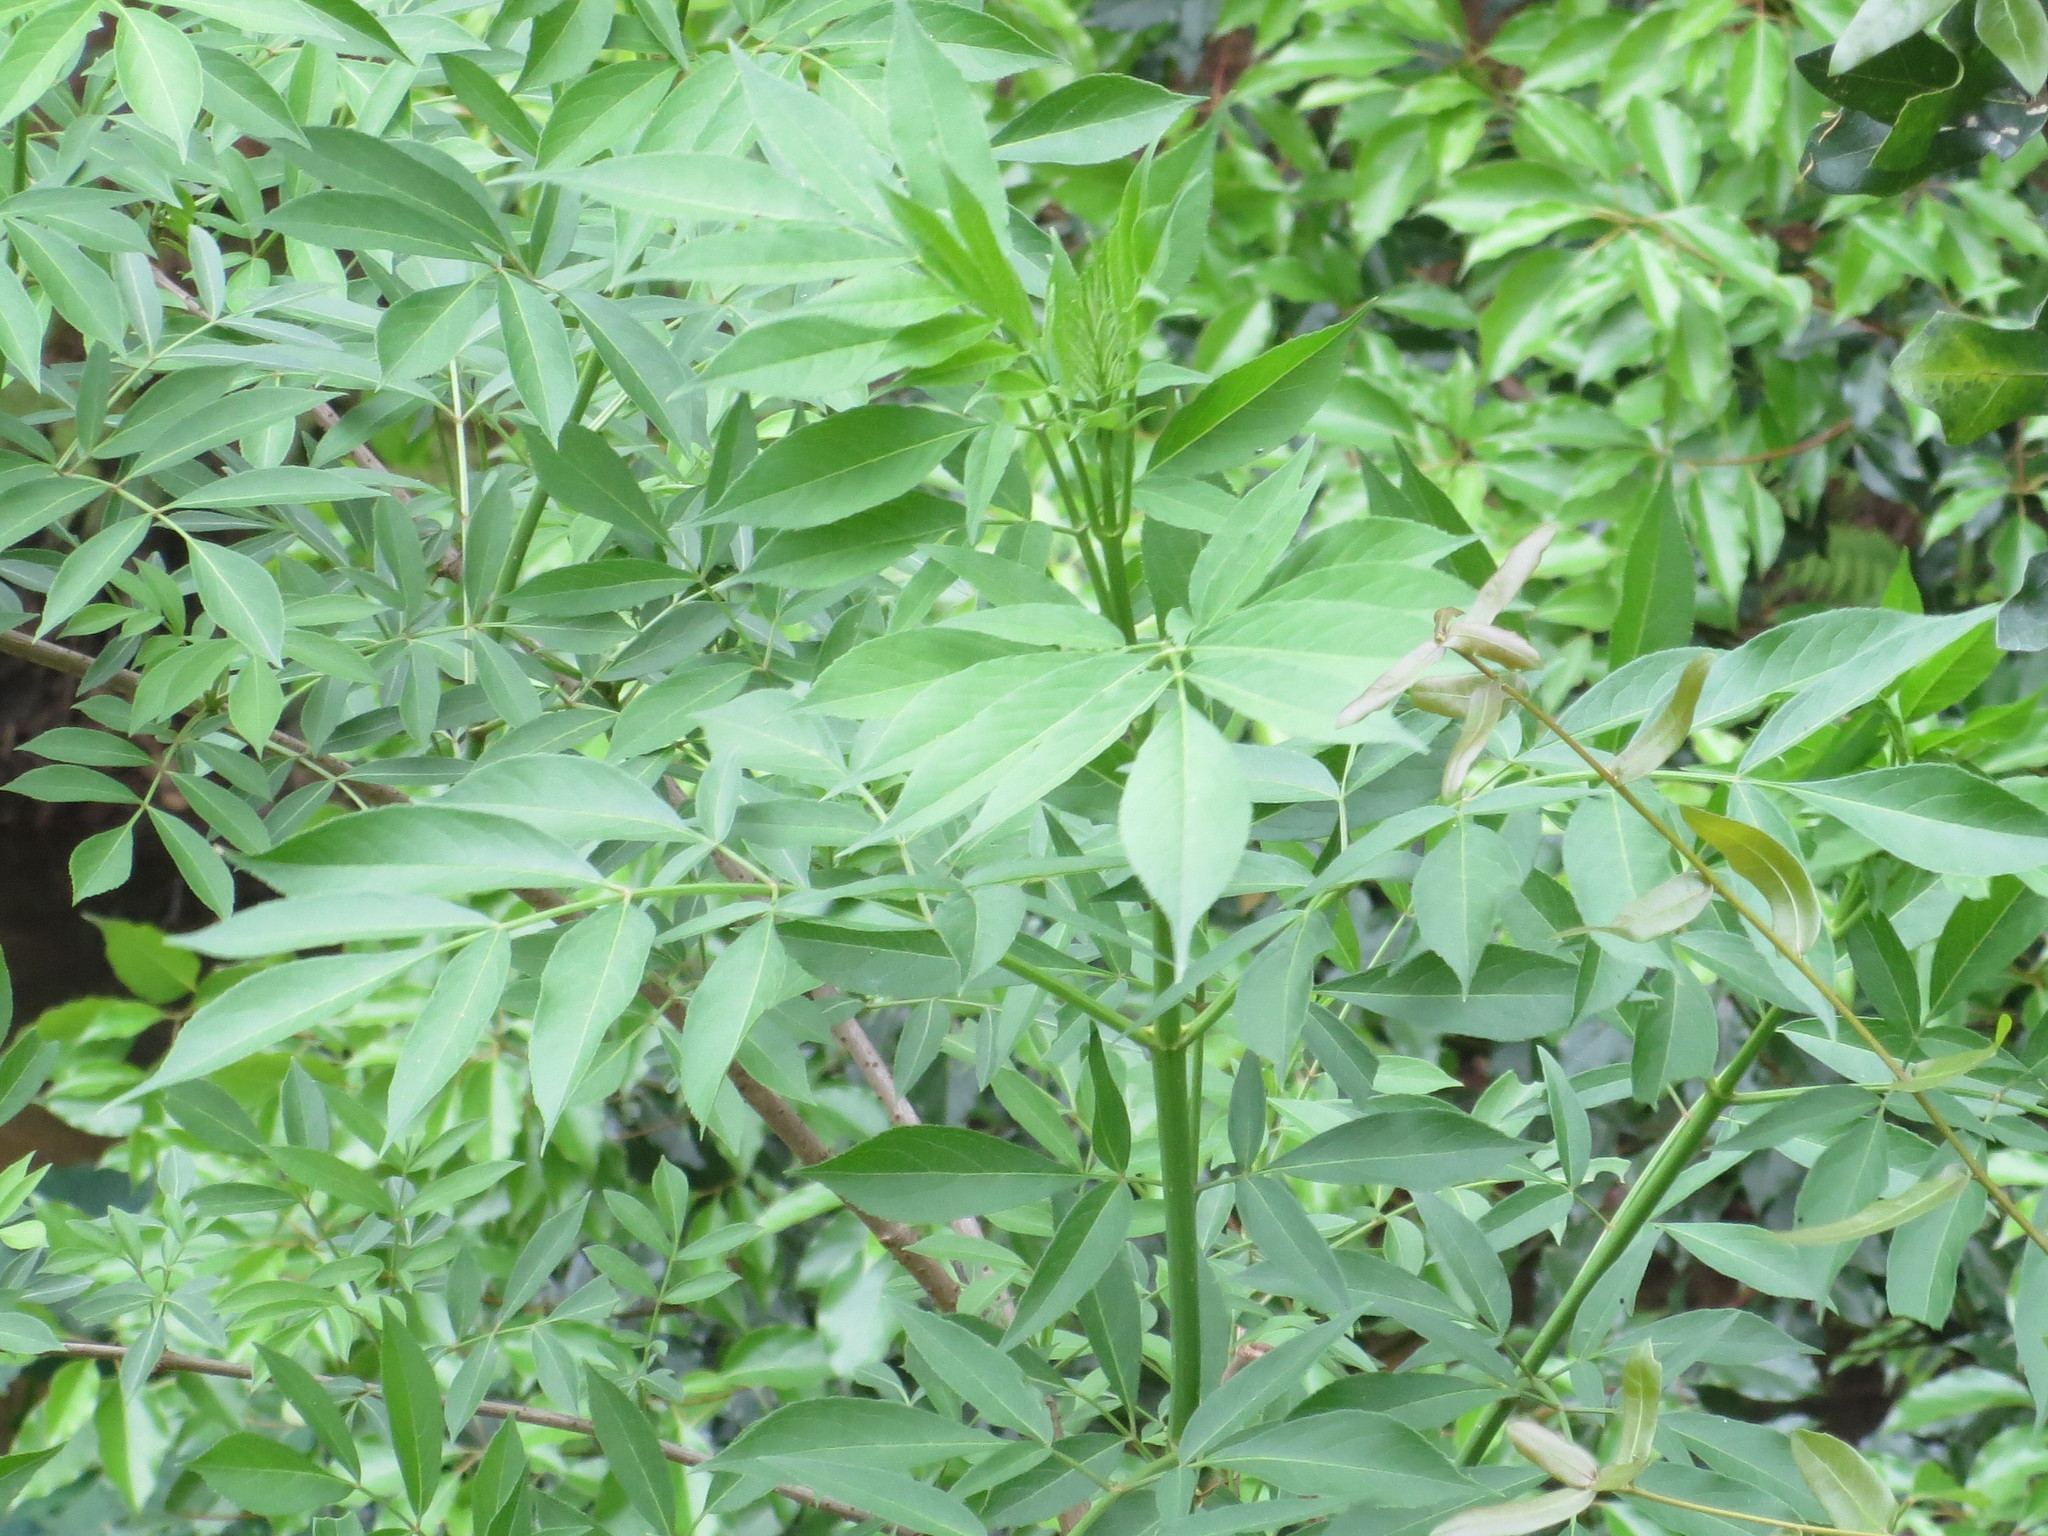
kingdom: Plantae
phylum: Tracheophyta
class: Magnoliopsida
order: Dipsacales
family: Viburnaceae
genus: Sambucus
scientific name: Sambucus canadensis
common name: American elder
